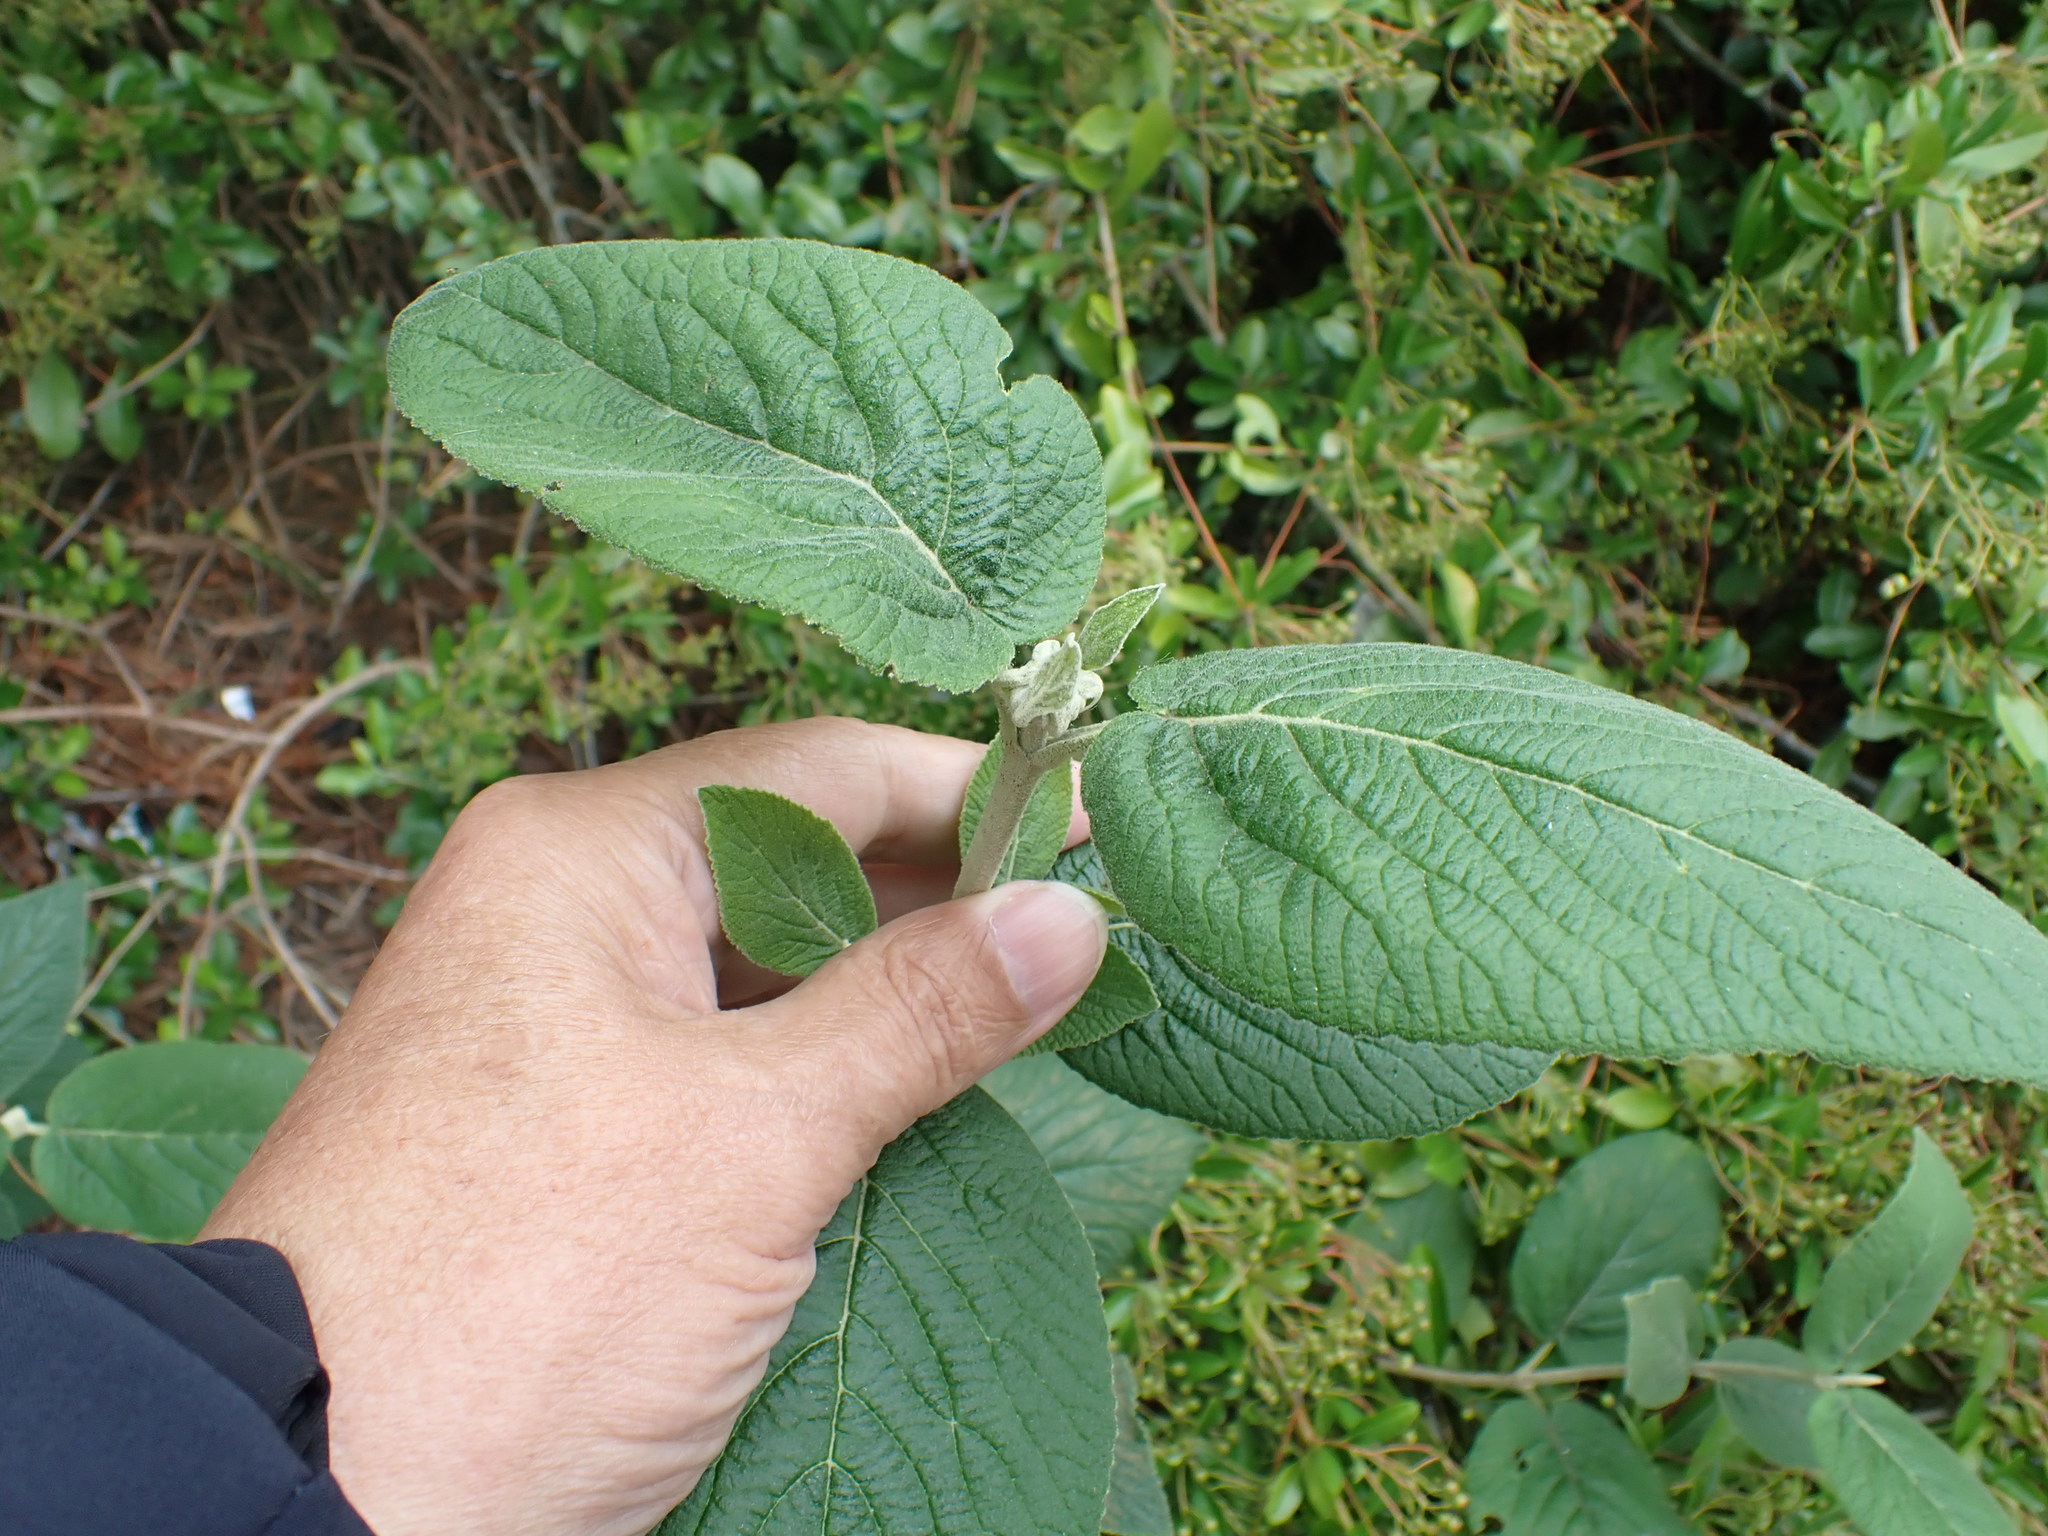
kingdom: Plantae
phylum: Tracheophyta
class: Magnoliopsida
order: Dipsacales
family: Viburnaceae
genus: Viburnum
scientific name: Viburnum lantana
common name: Wayfaring tree
